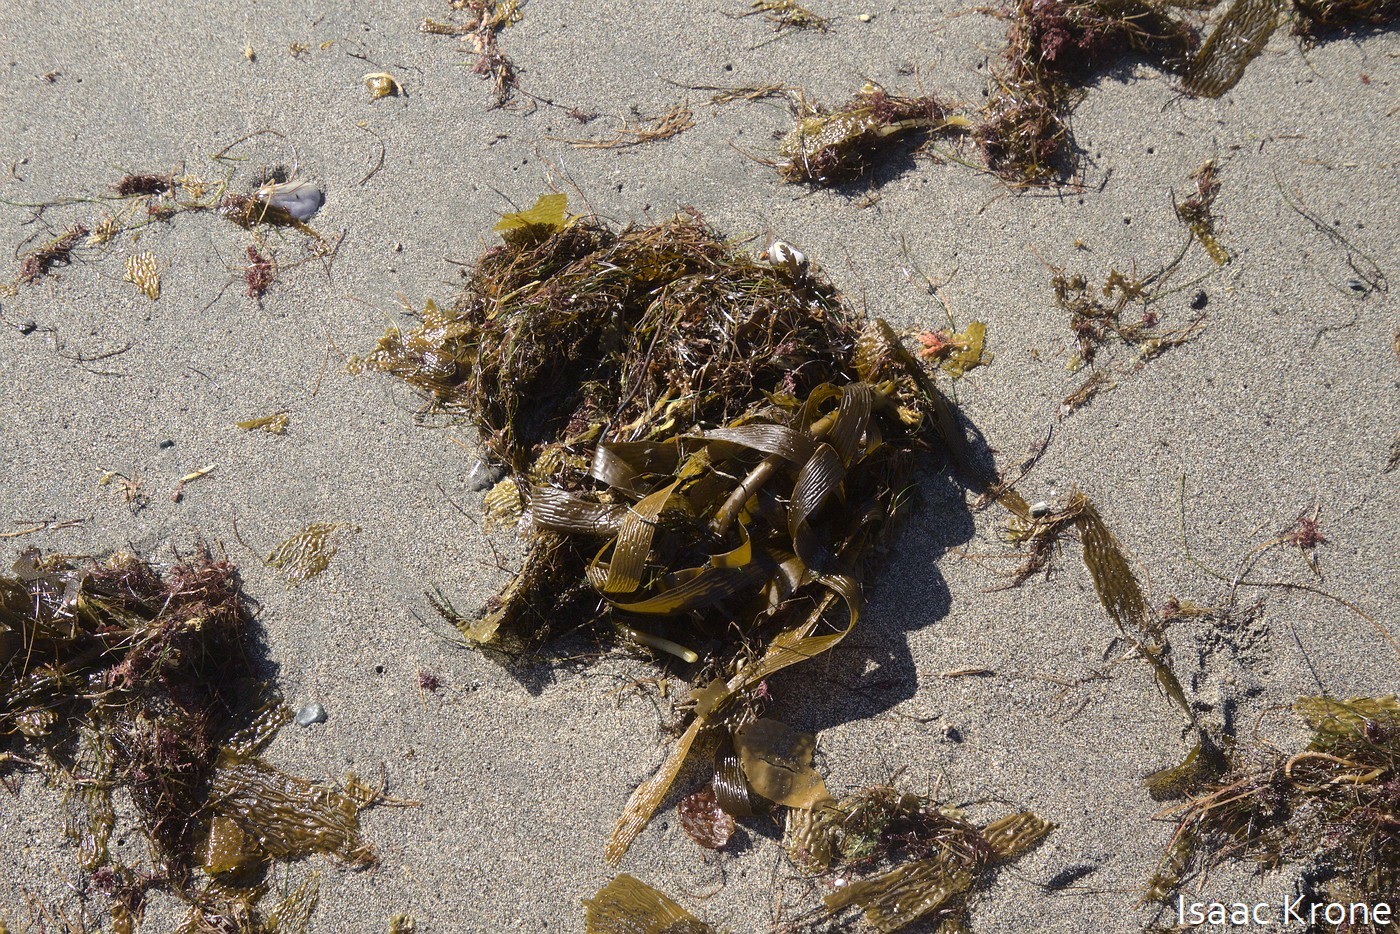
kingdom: Chromista
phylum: Ochrophyta
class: Phaeophyceae
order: Laminariales
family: Lessoniaceae
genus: Eisenia
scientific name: Eisenia arborea
